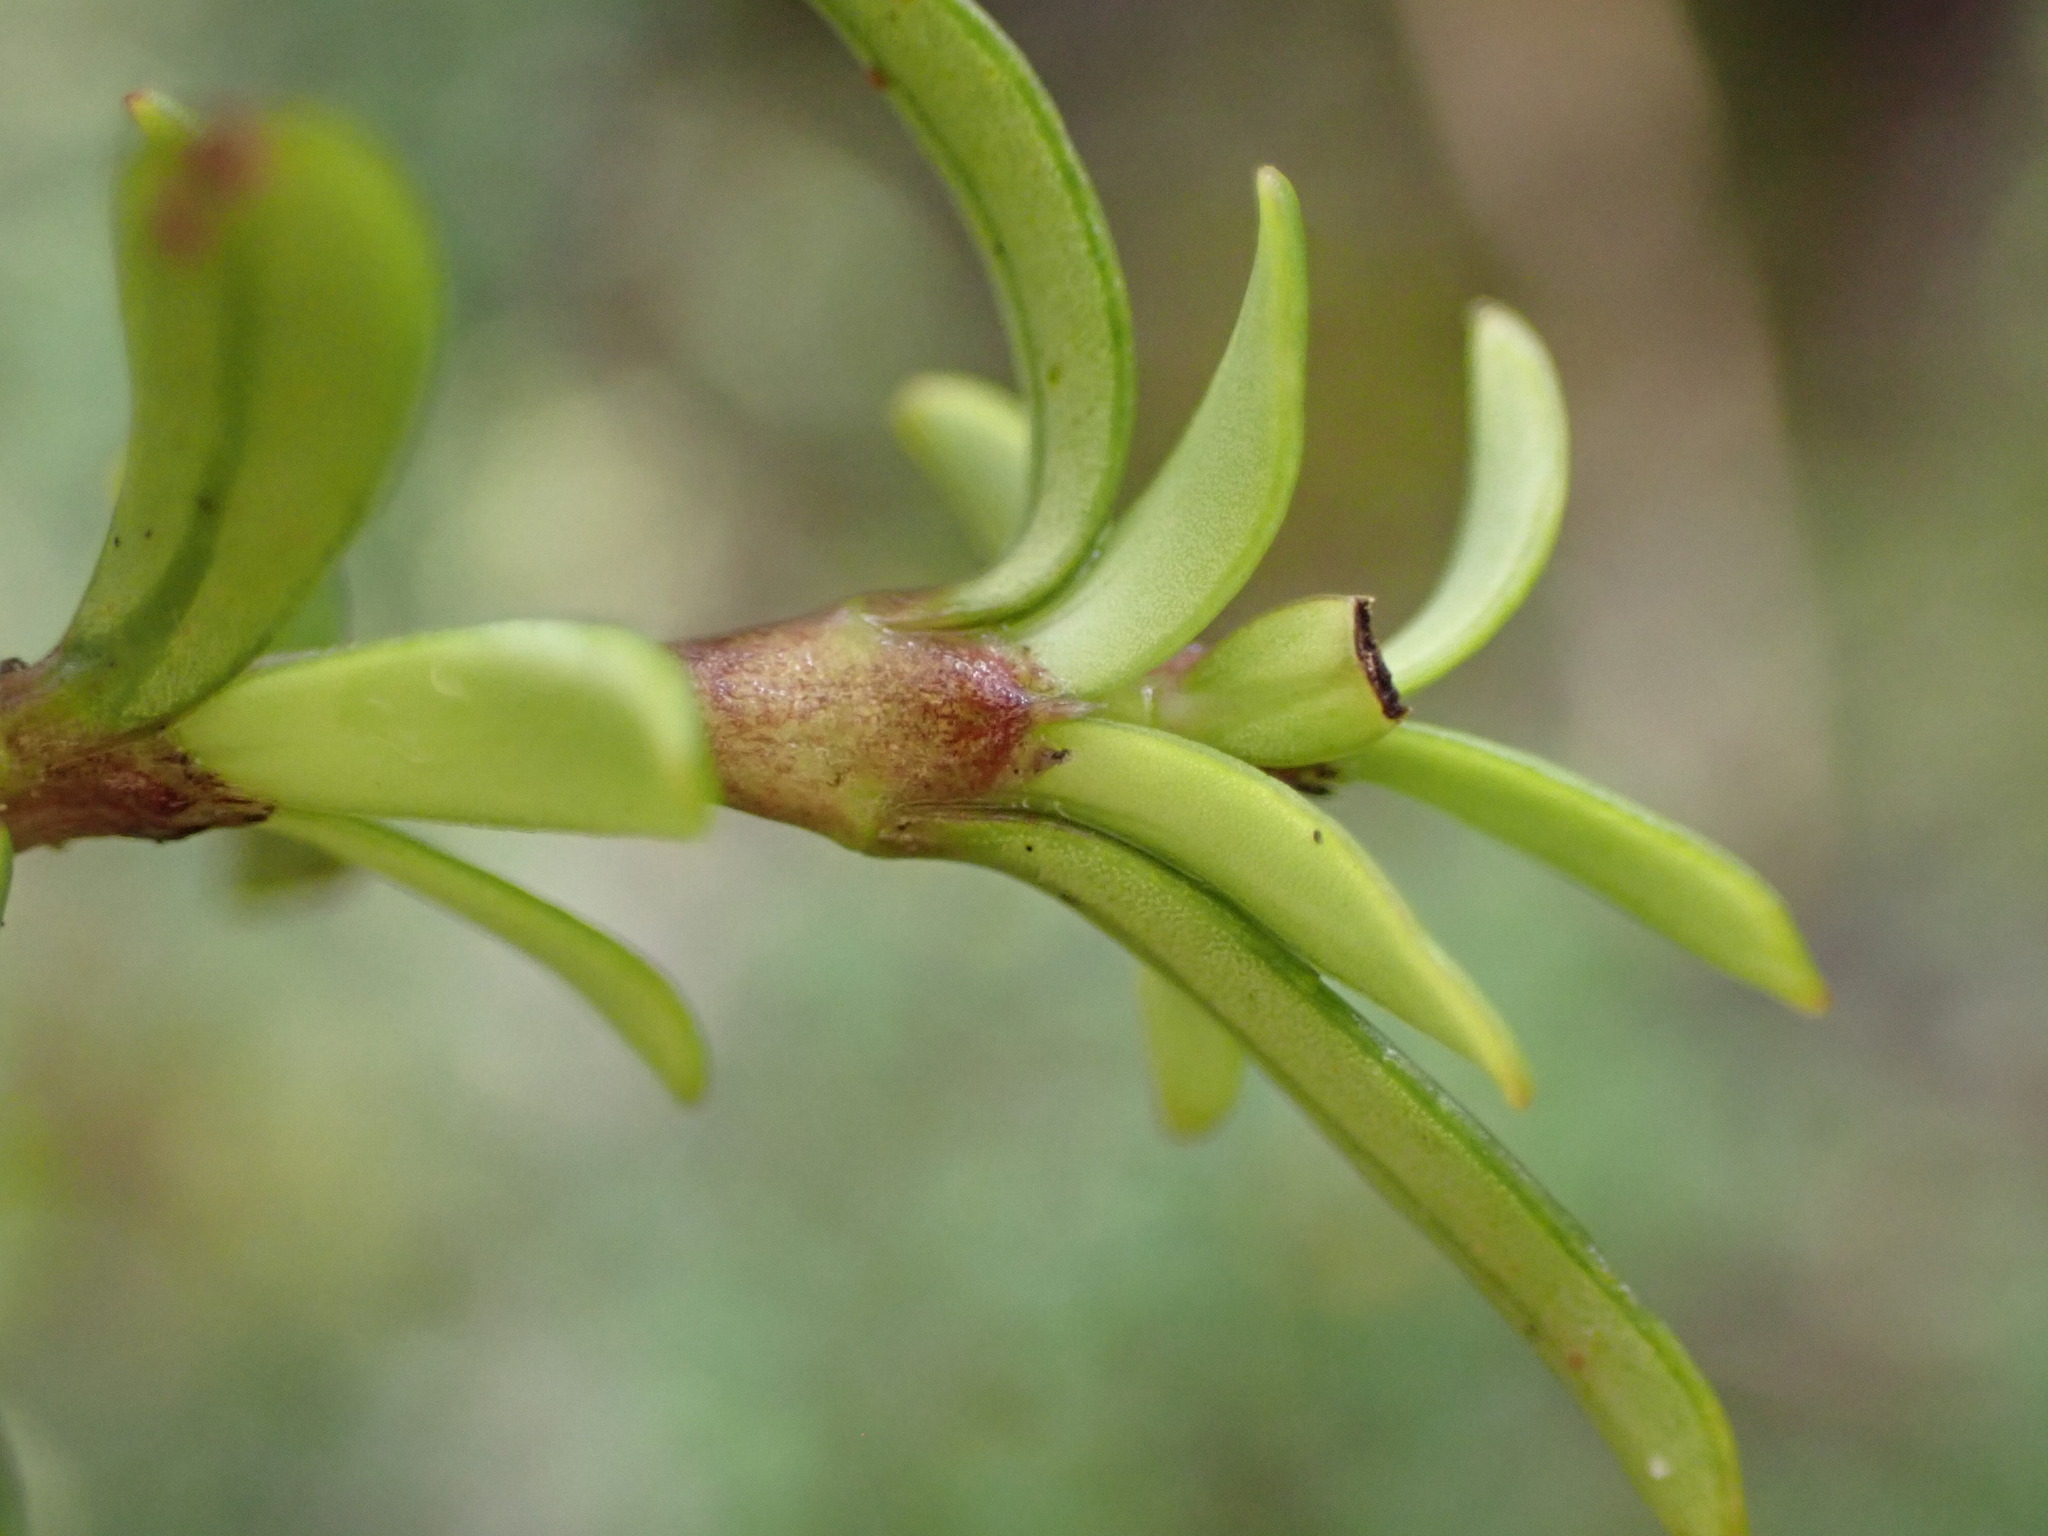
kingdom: Plantae
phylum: Tracheophyta
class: Magnoliopsida
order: Gentianales
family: Rubiaceae
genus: Coprosma
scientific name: Coprosma pseudocuneata
